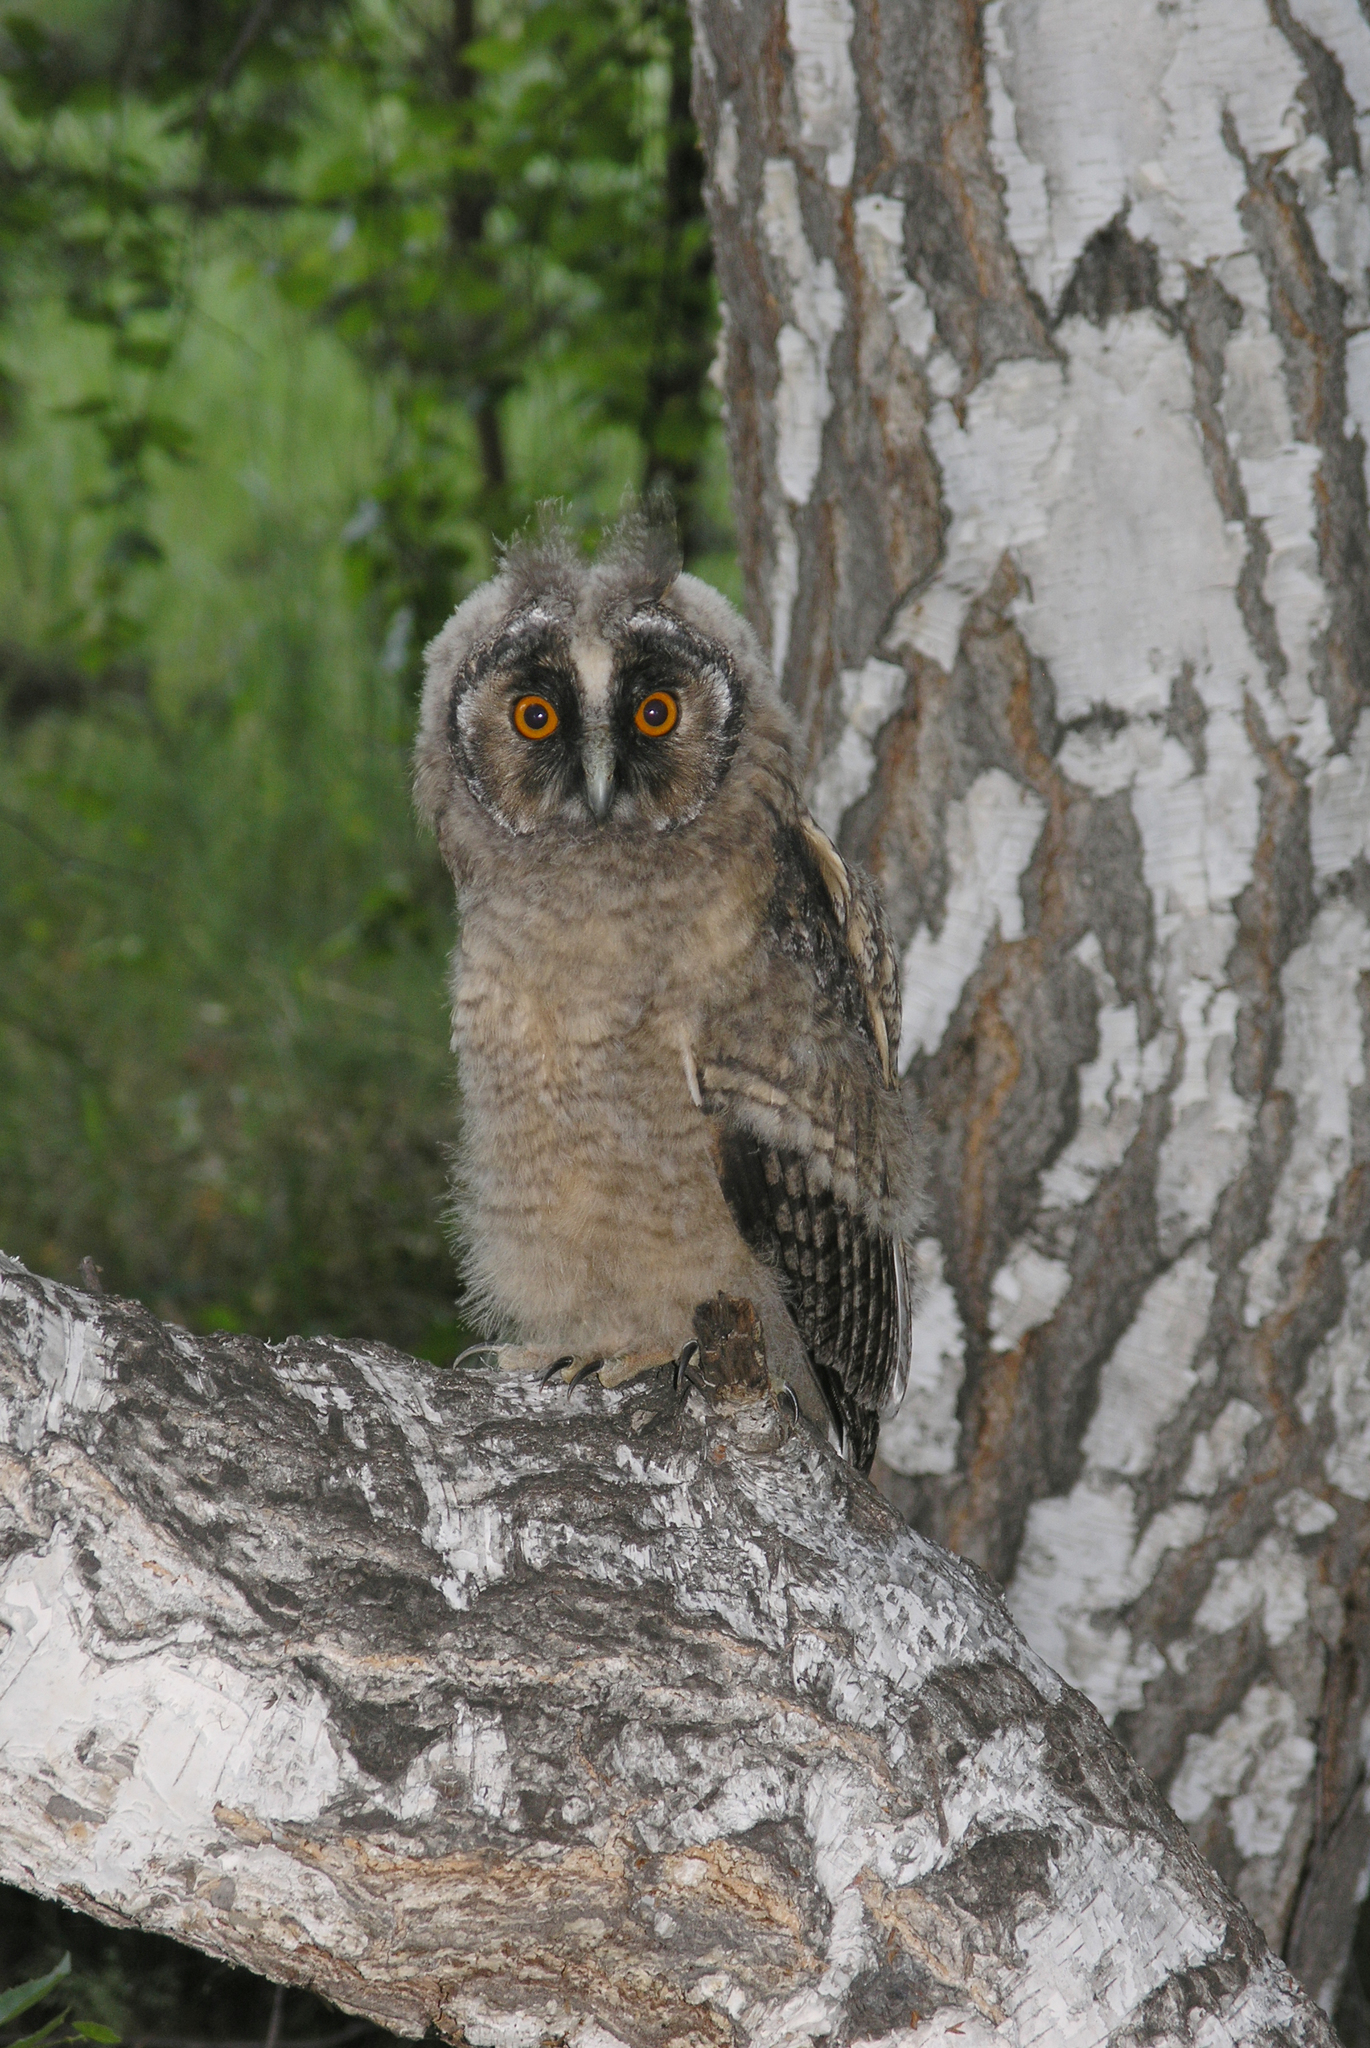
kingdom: Animalia
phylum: Chordata
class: Aves
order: Strigiformes
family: Strigidae
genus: Asio
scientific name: Asio otus
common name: Long-eared owl
